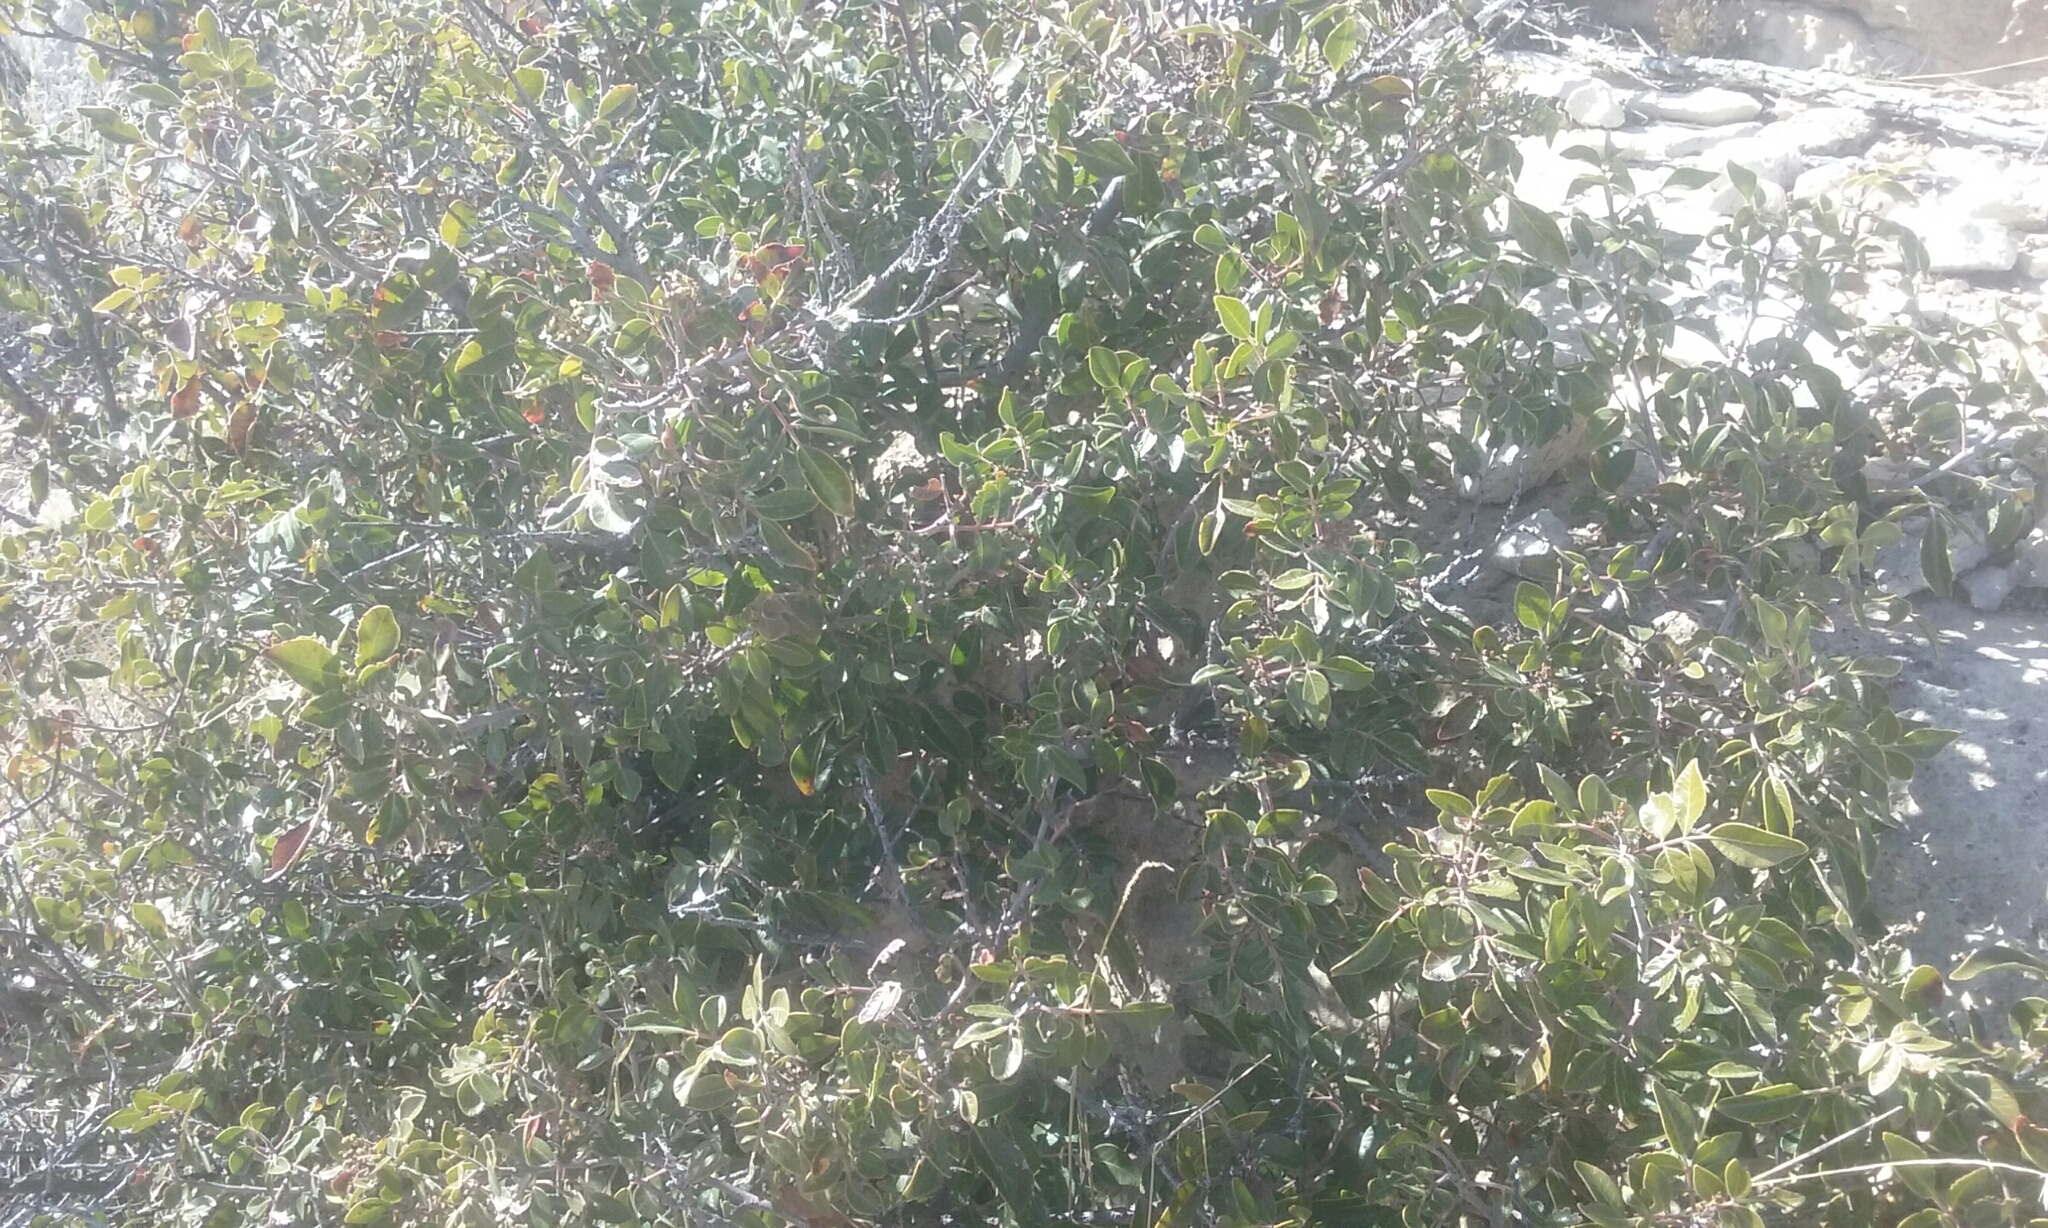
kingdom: Plantae
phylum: Tracheophyta
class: Magnoliopsida
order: Sapindales
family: Anacardiaceae
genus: Rhus
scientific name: Rhus virens
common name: Evergreen sumac
